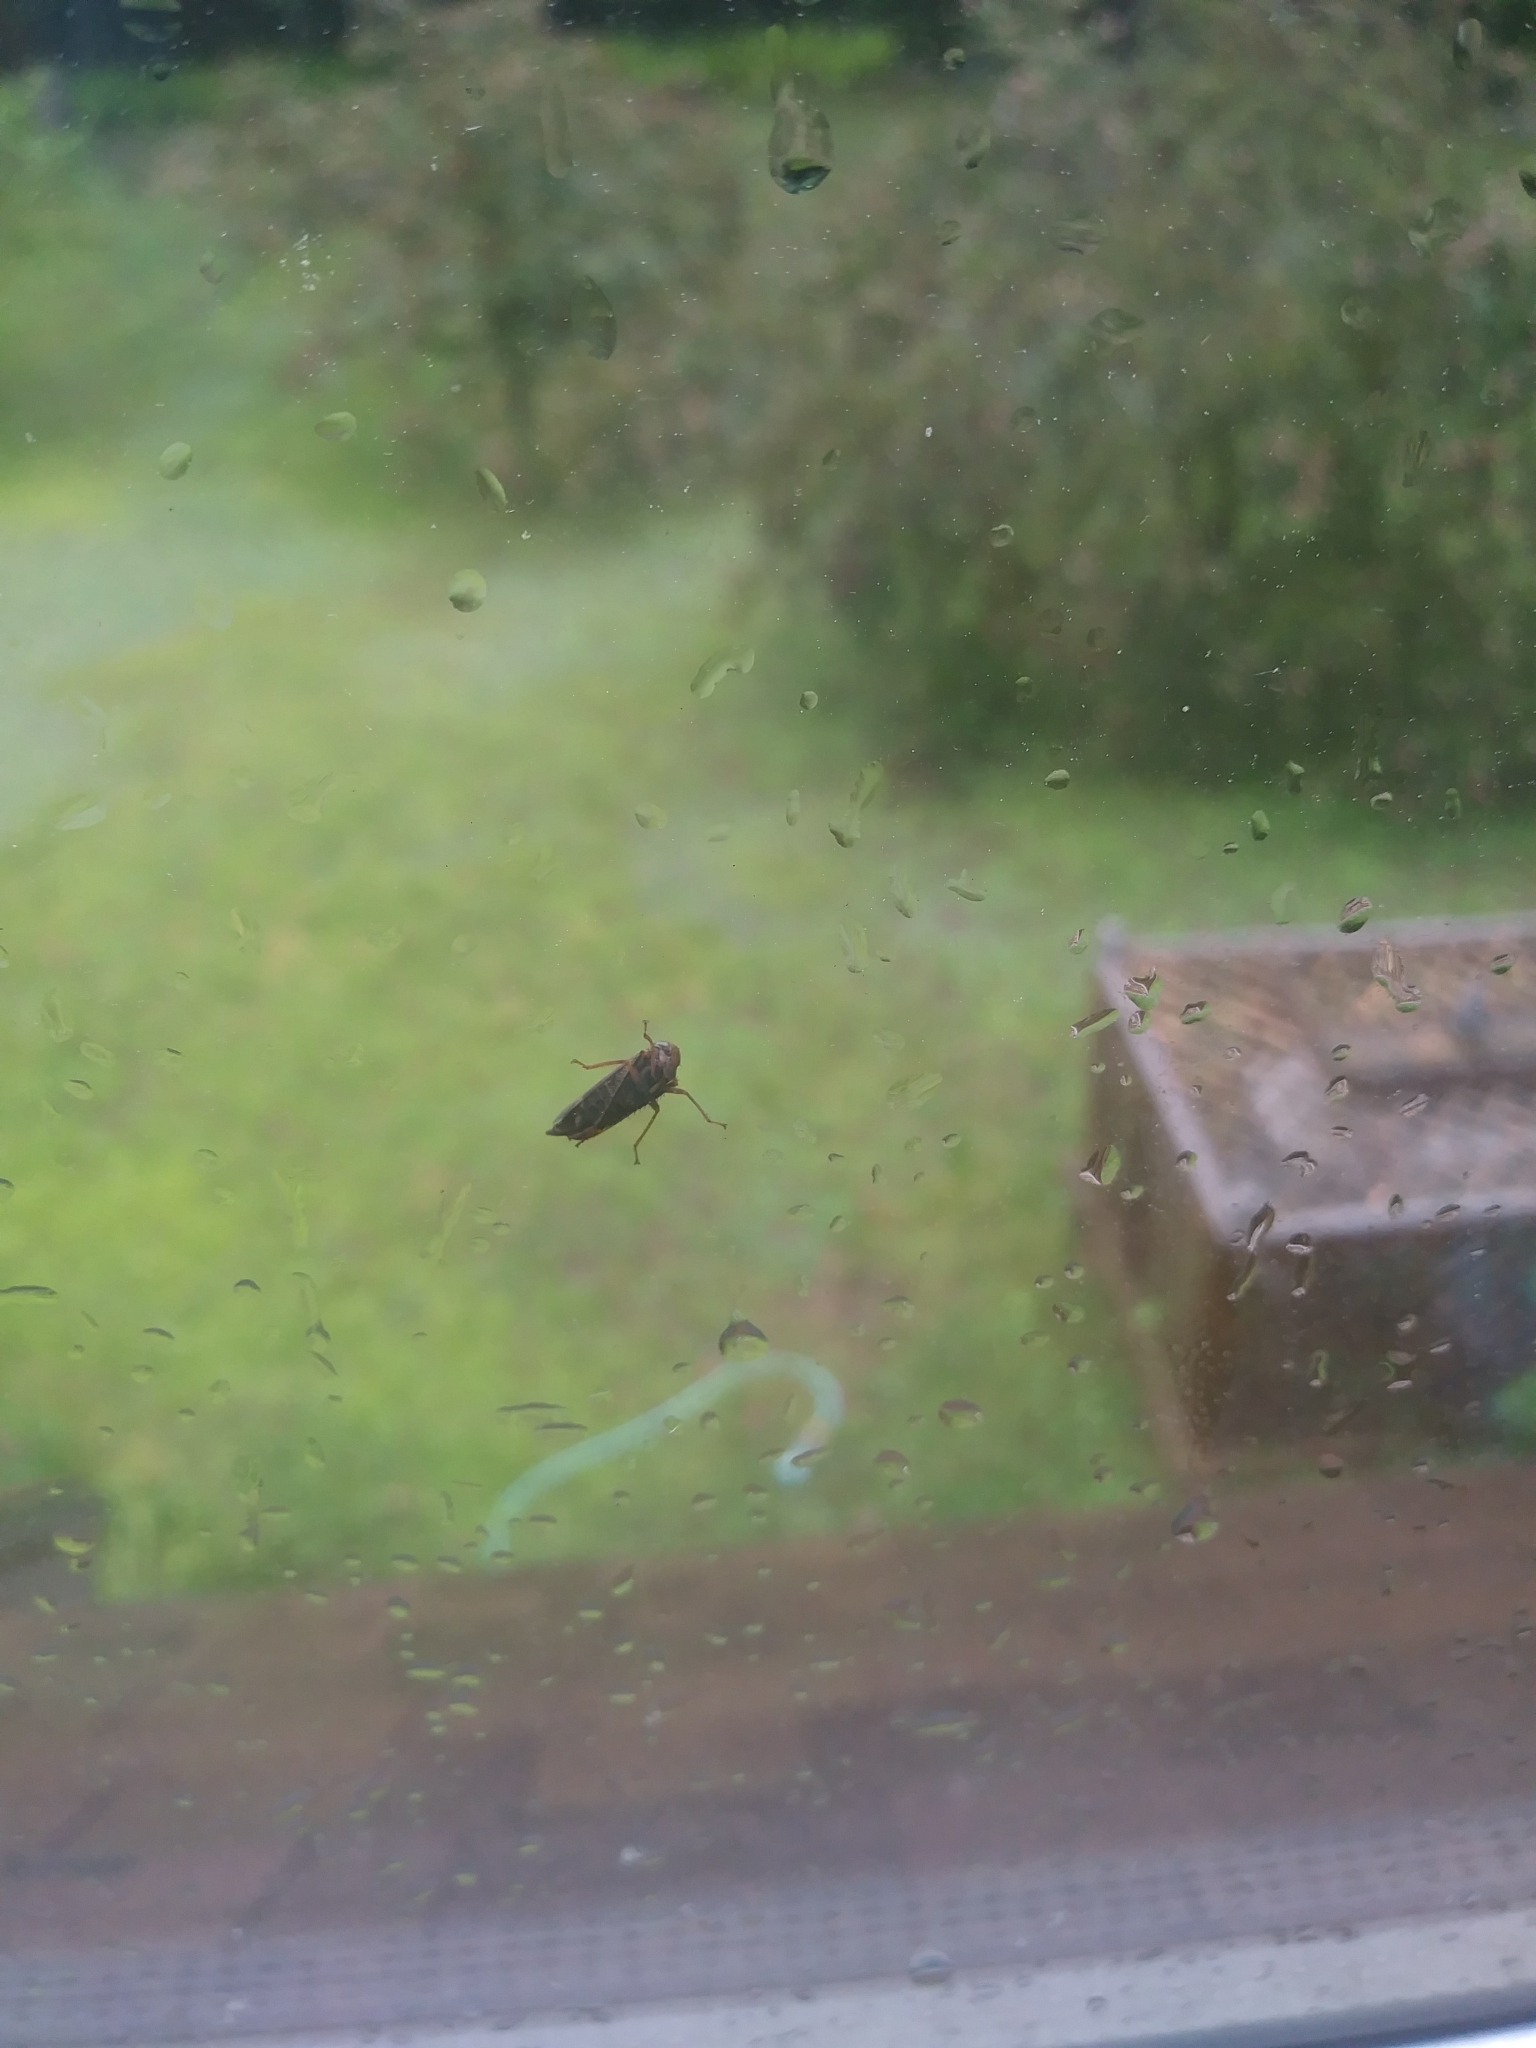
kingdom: Animalia
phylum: Arthropoda
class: Insecta
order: Hemiptera
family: Cicadellidae
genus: Jikradia
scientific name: Jikradia olitoria
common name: Coppery leafhopper
